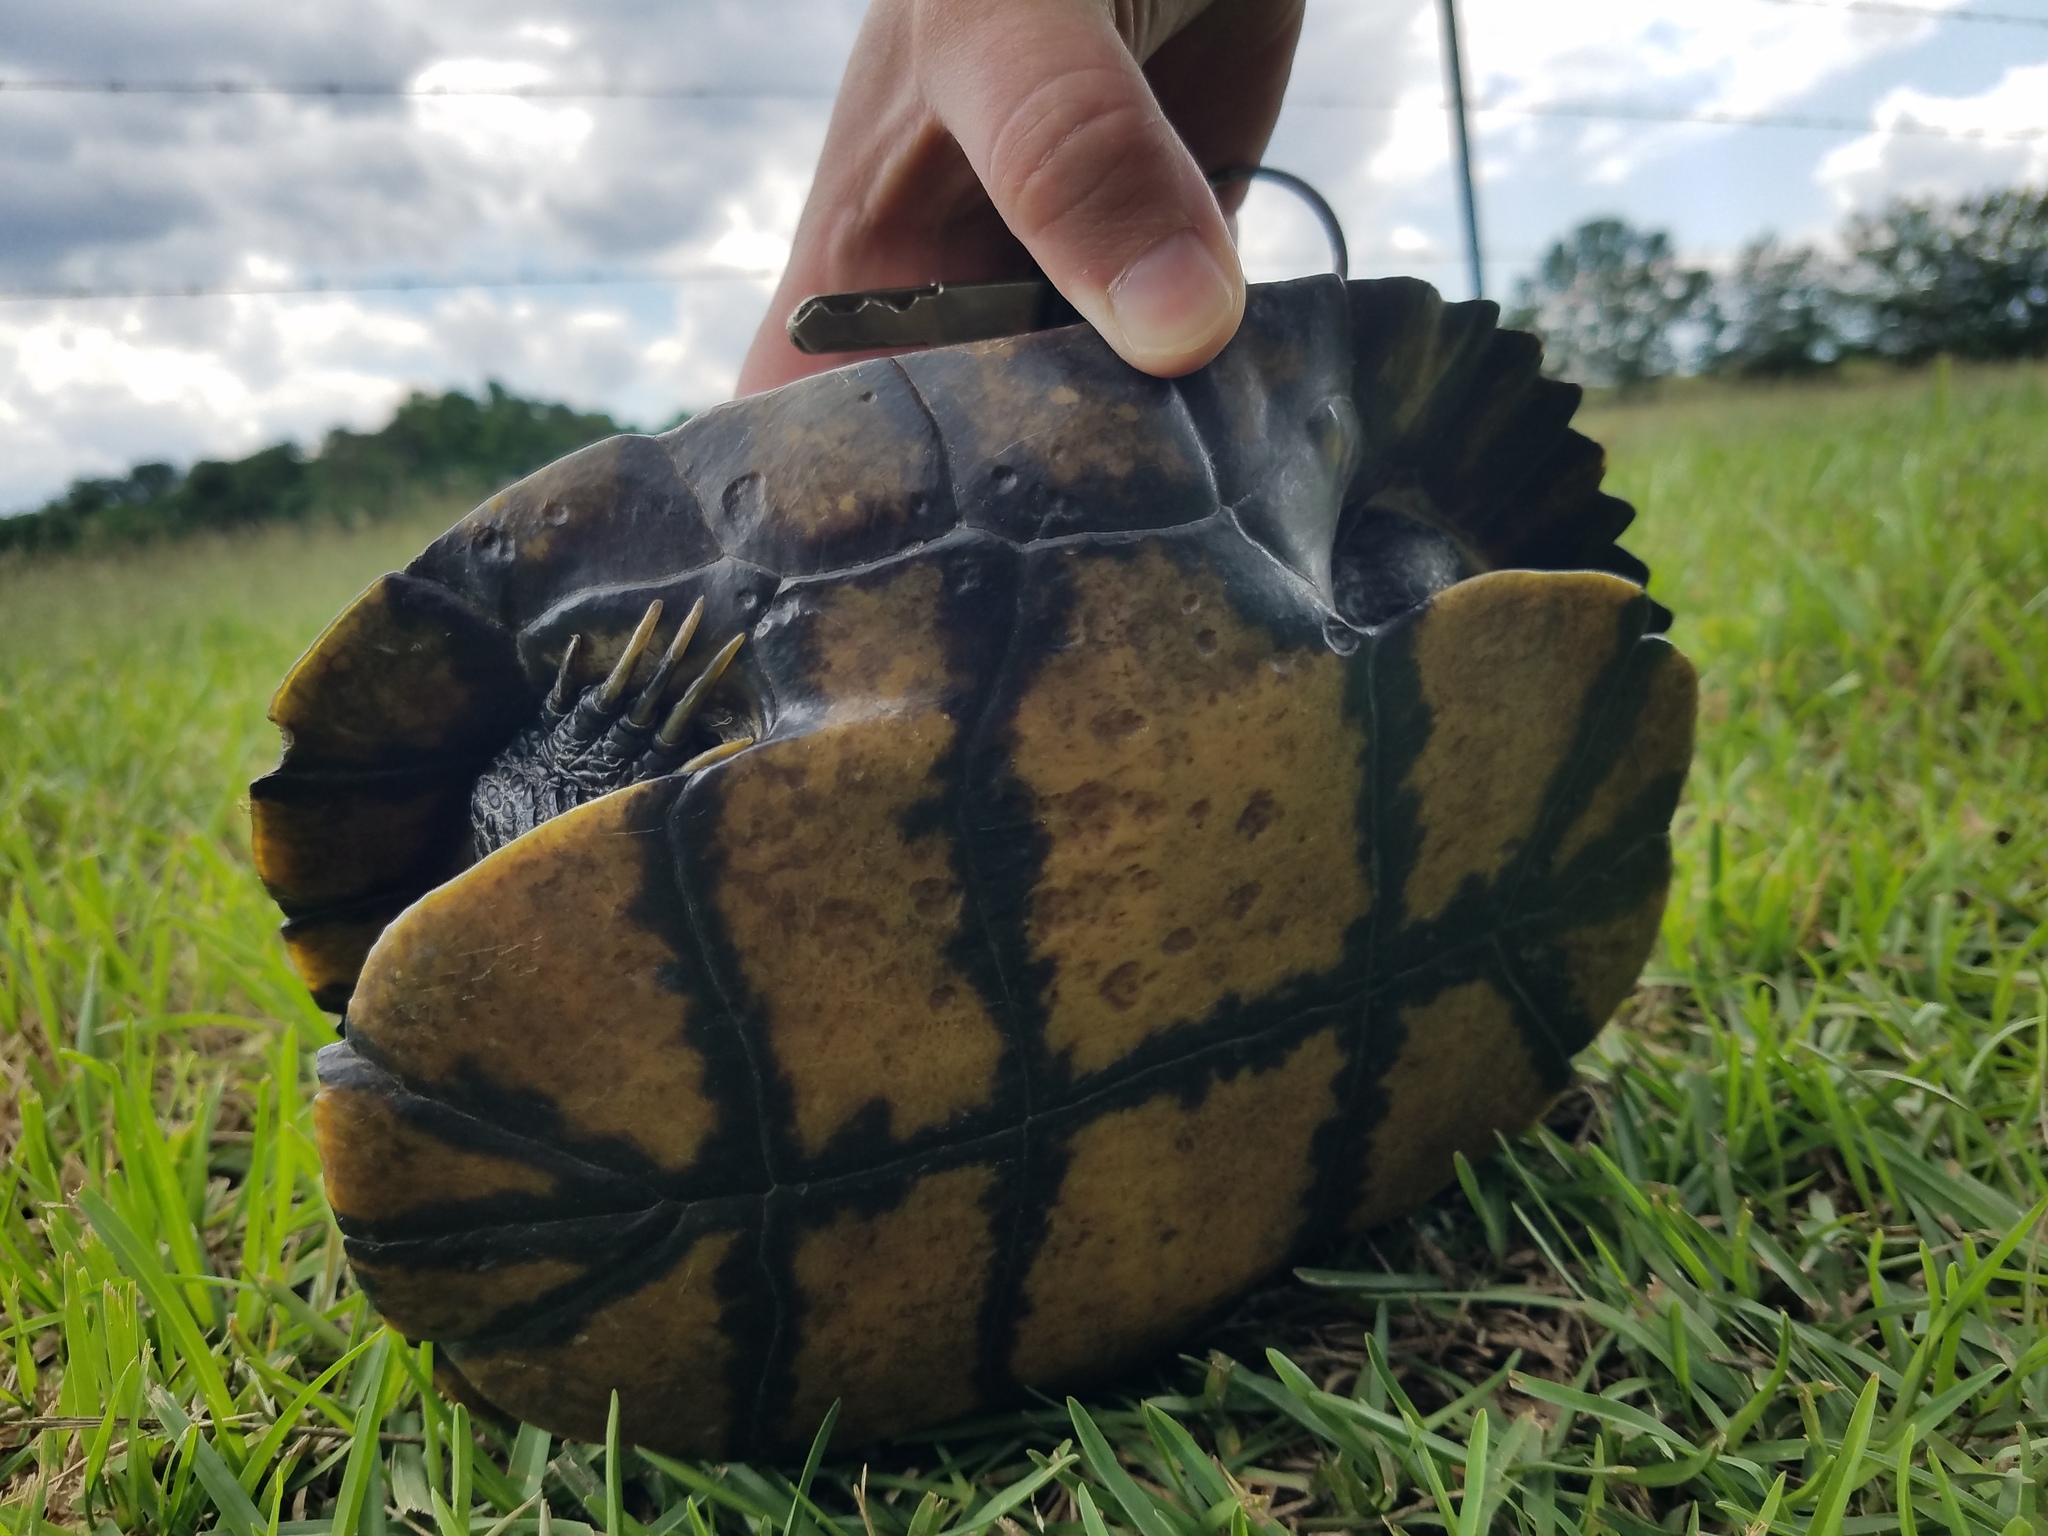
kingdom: Animalia
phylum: Chordata
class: Testudines
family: Emydidae
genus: Trachemys
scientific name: Trachemys scripta
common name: Slider
